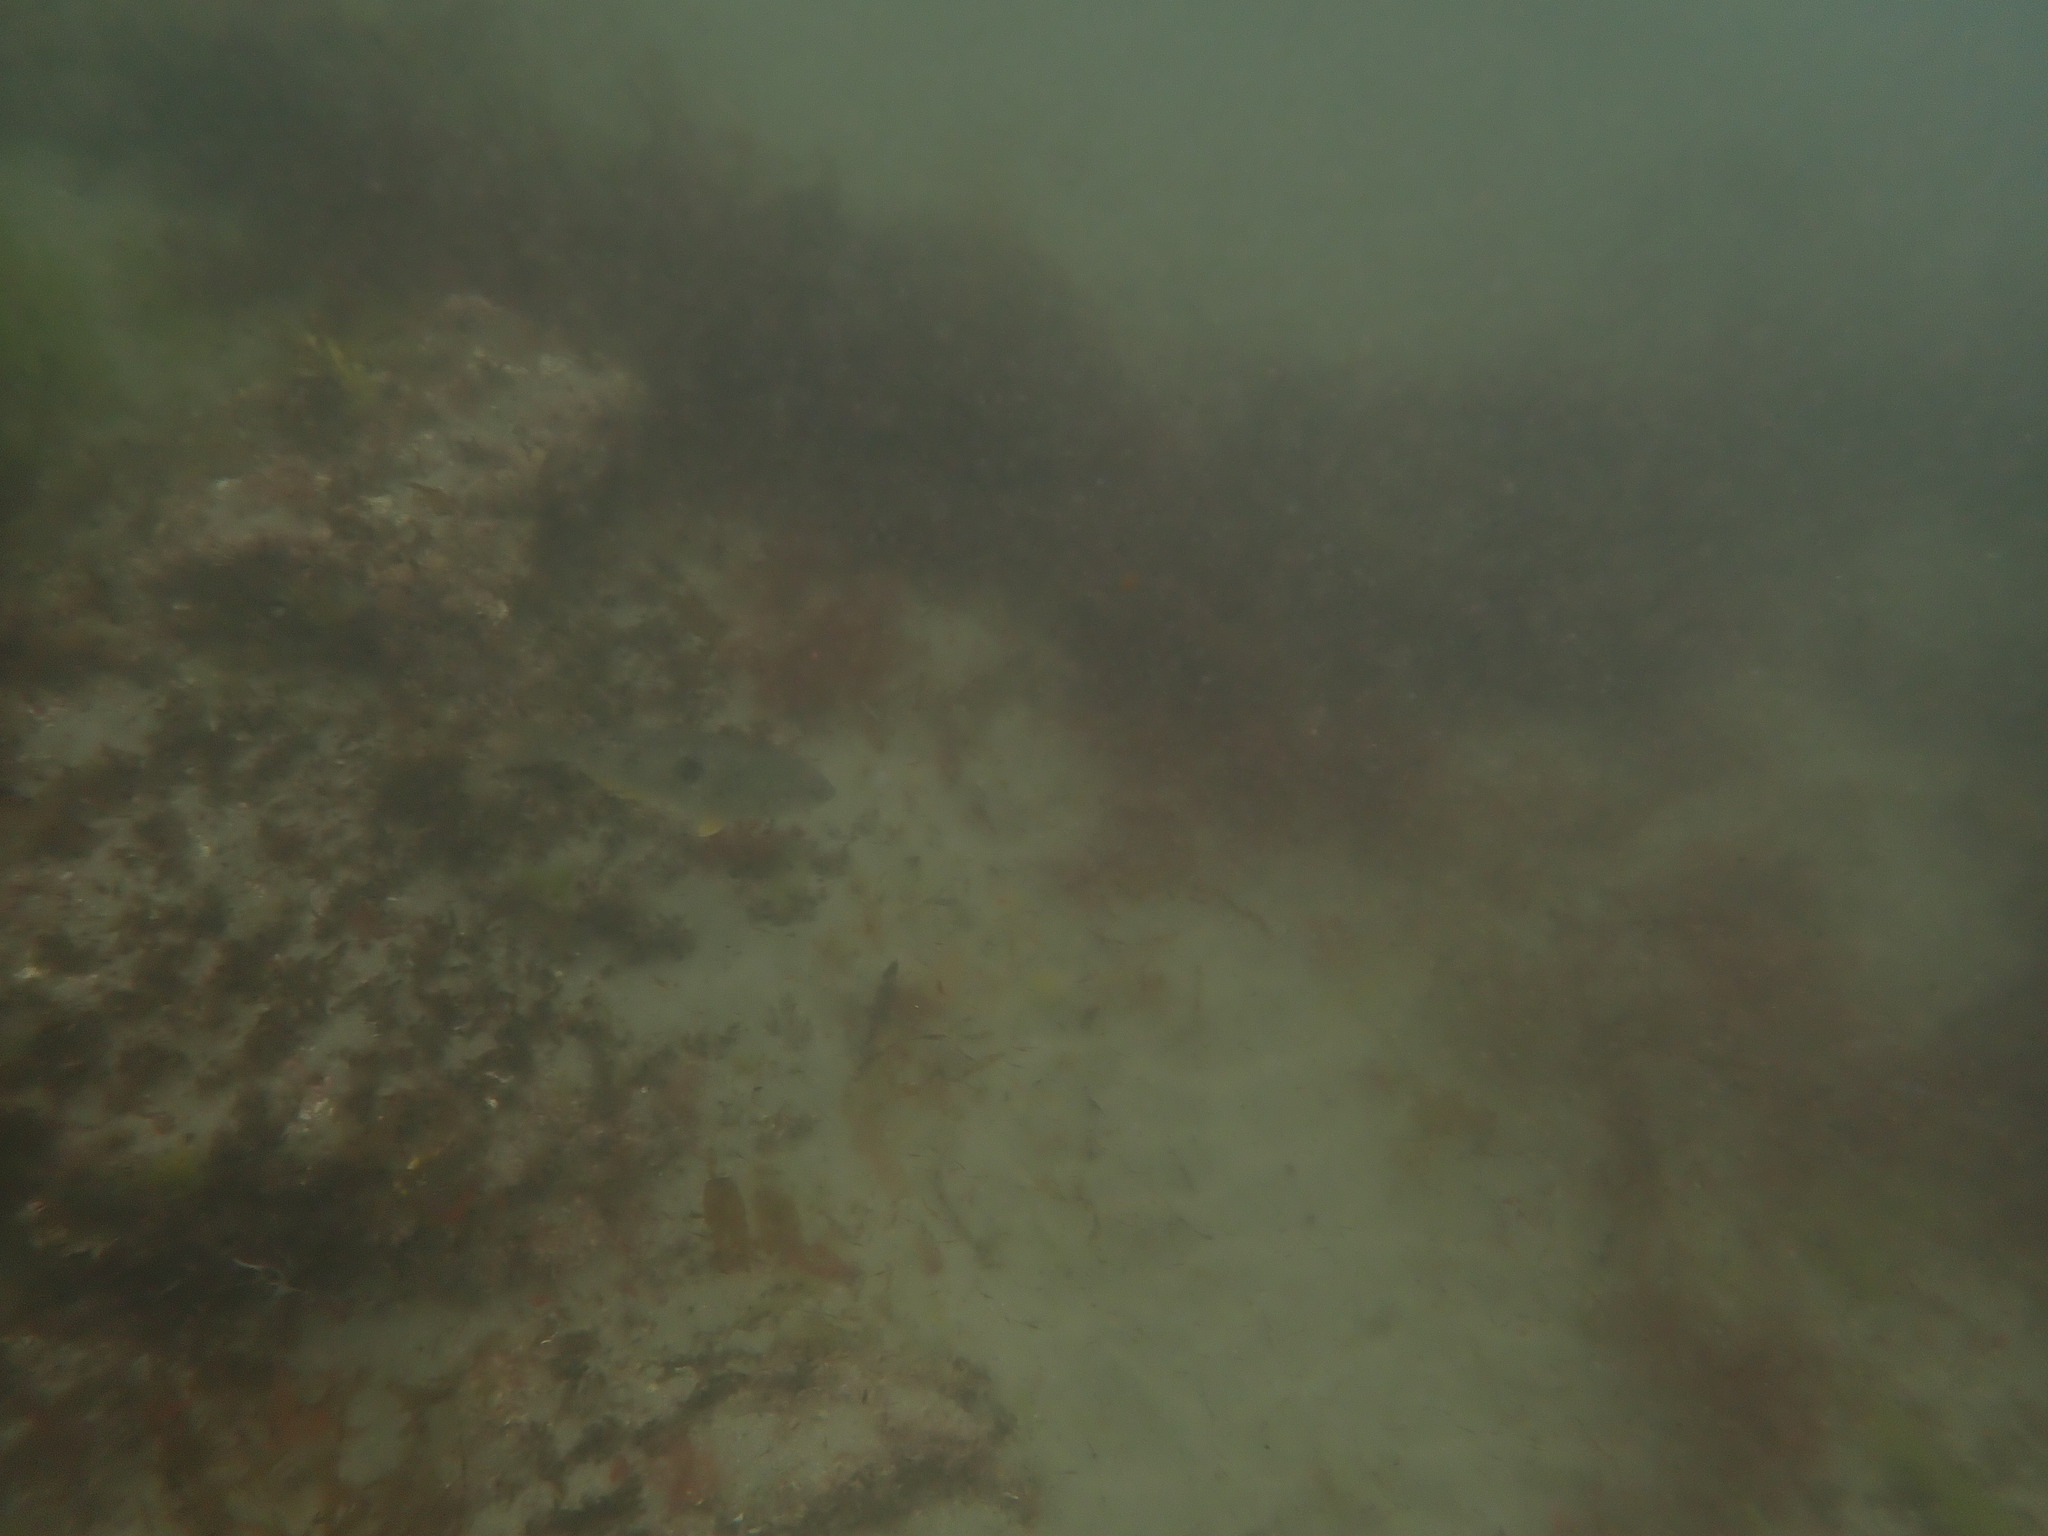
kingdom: Animalia
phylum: Chordata
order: Perciformes
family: Labridae
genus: Notolabrus
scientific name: Notolabrus celidotus
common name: Spotty
